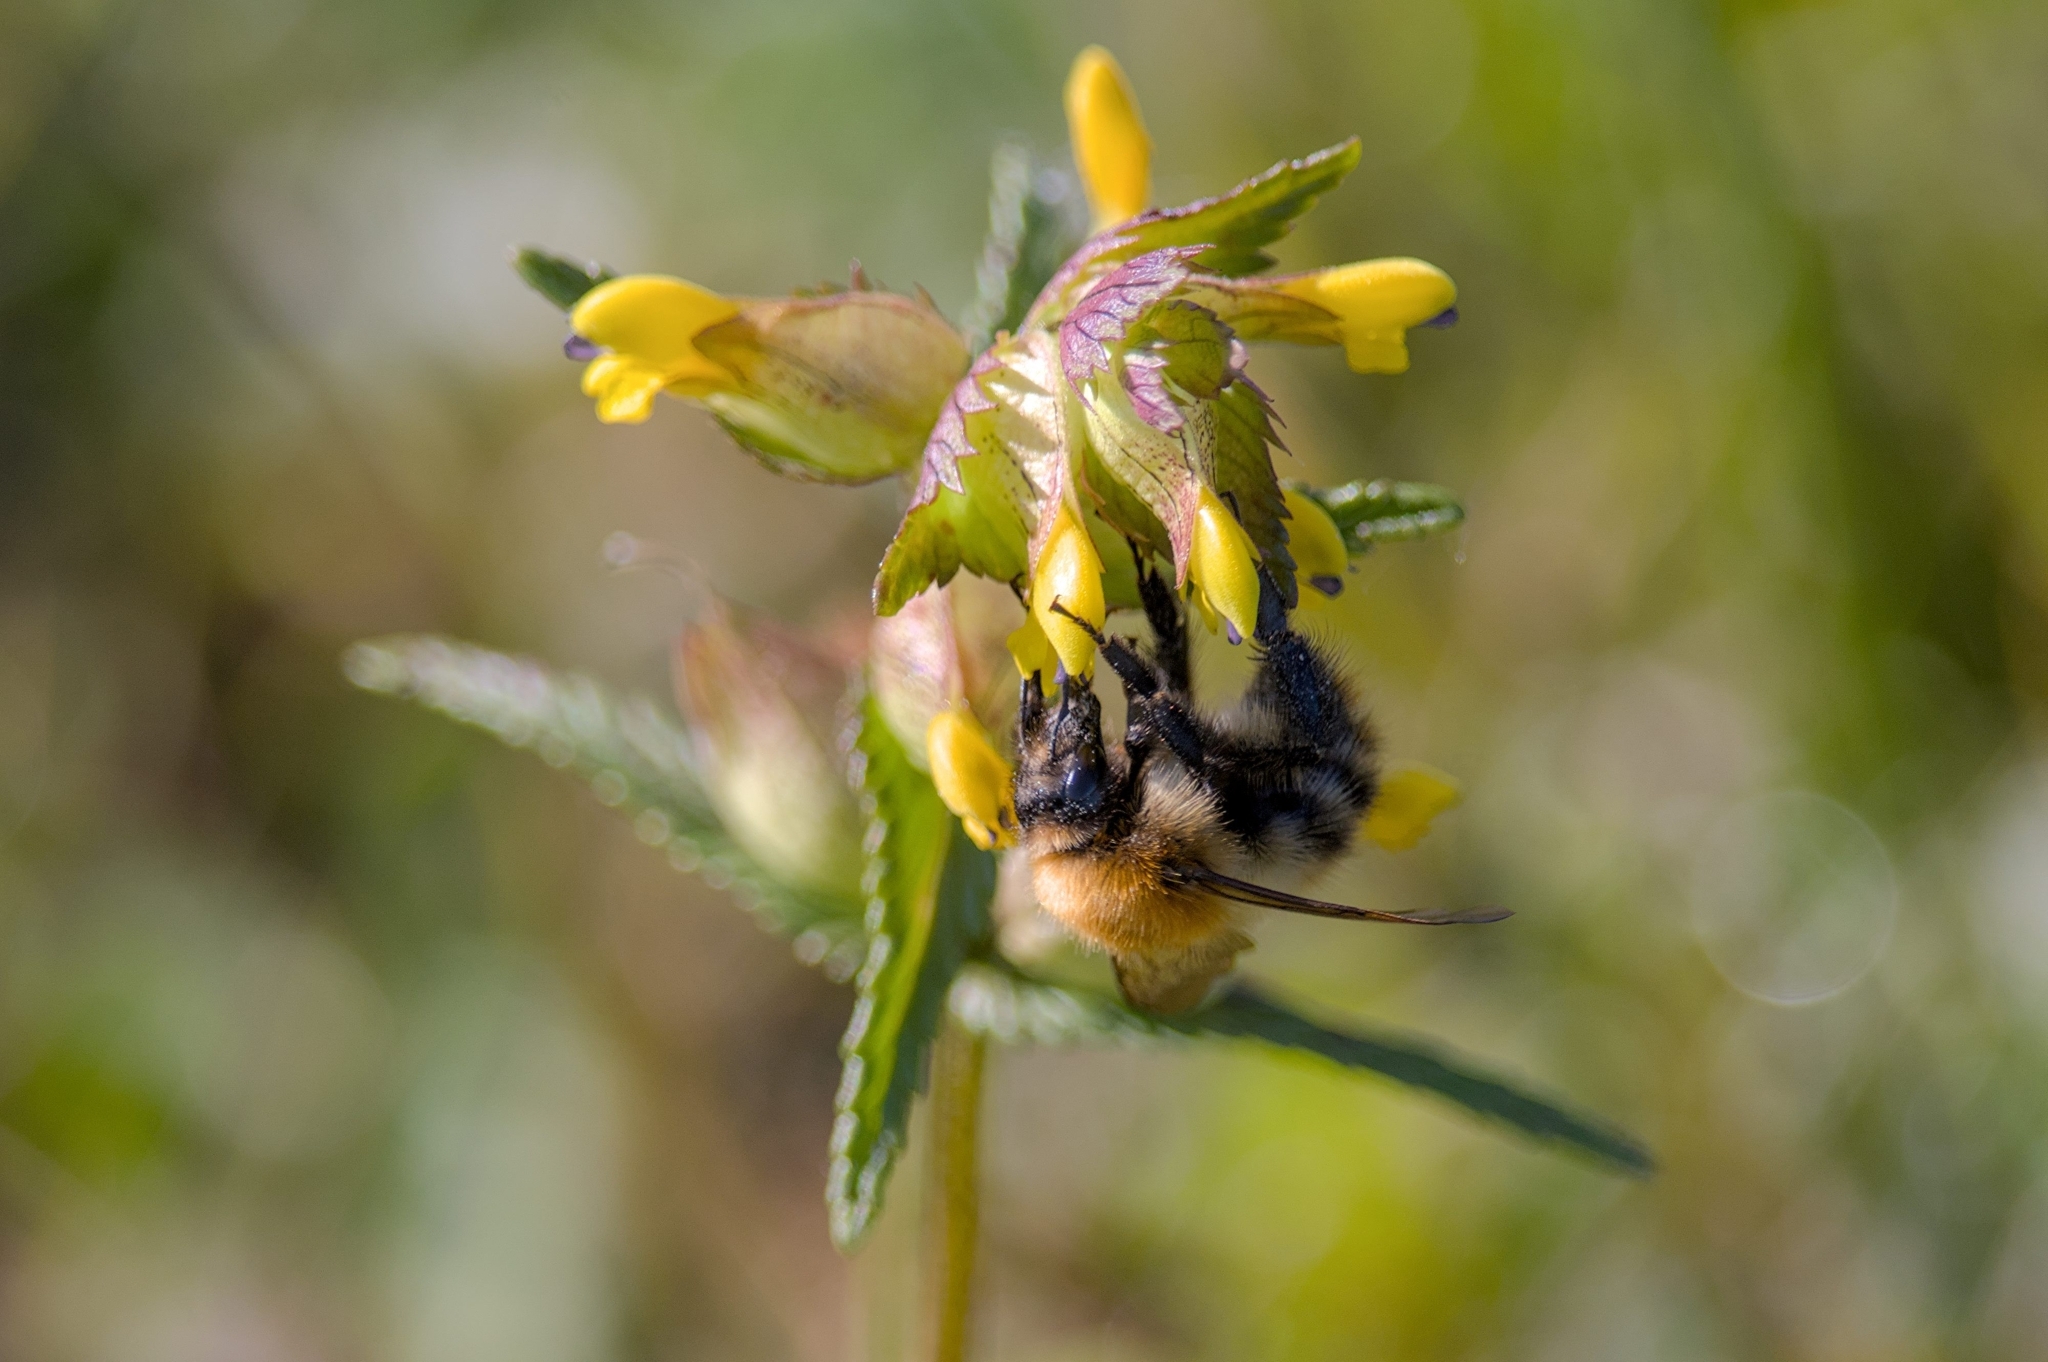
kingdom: Animalia
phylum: Arthropoda
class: Insecta
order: Hymenoptera
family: Apidae
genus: Bombus
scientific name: Bombus pascuorum
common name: Common carder bee
